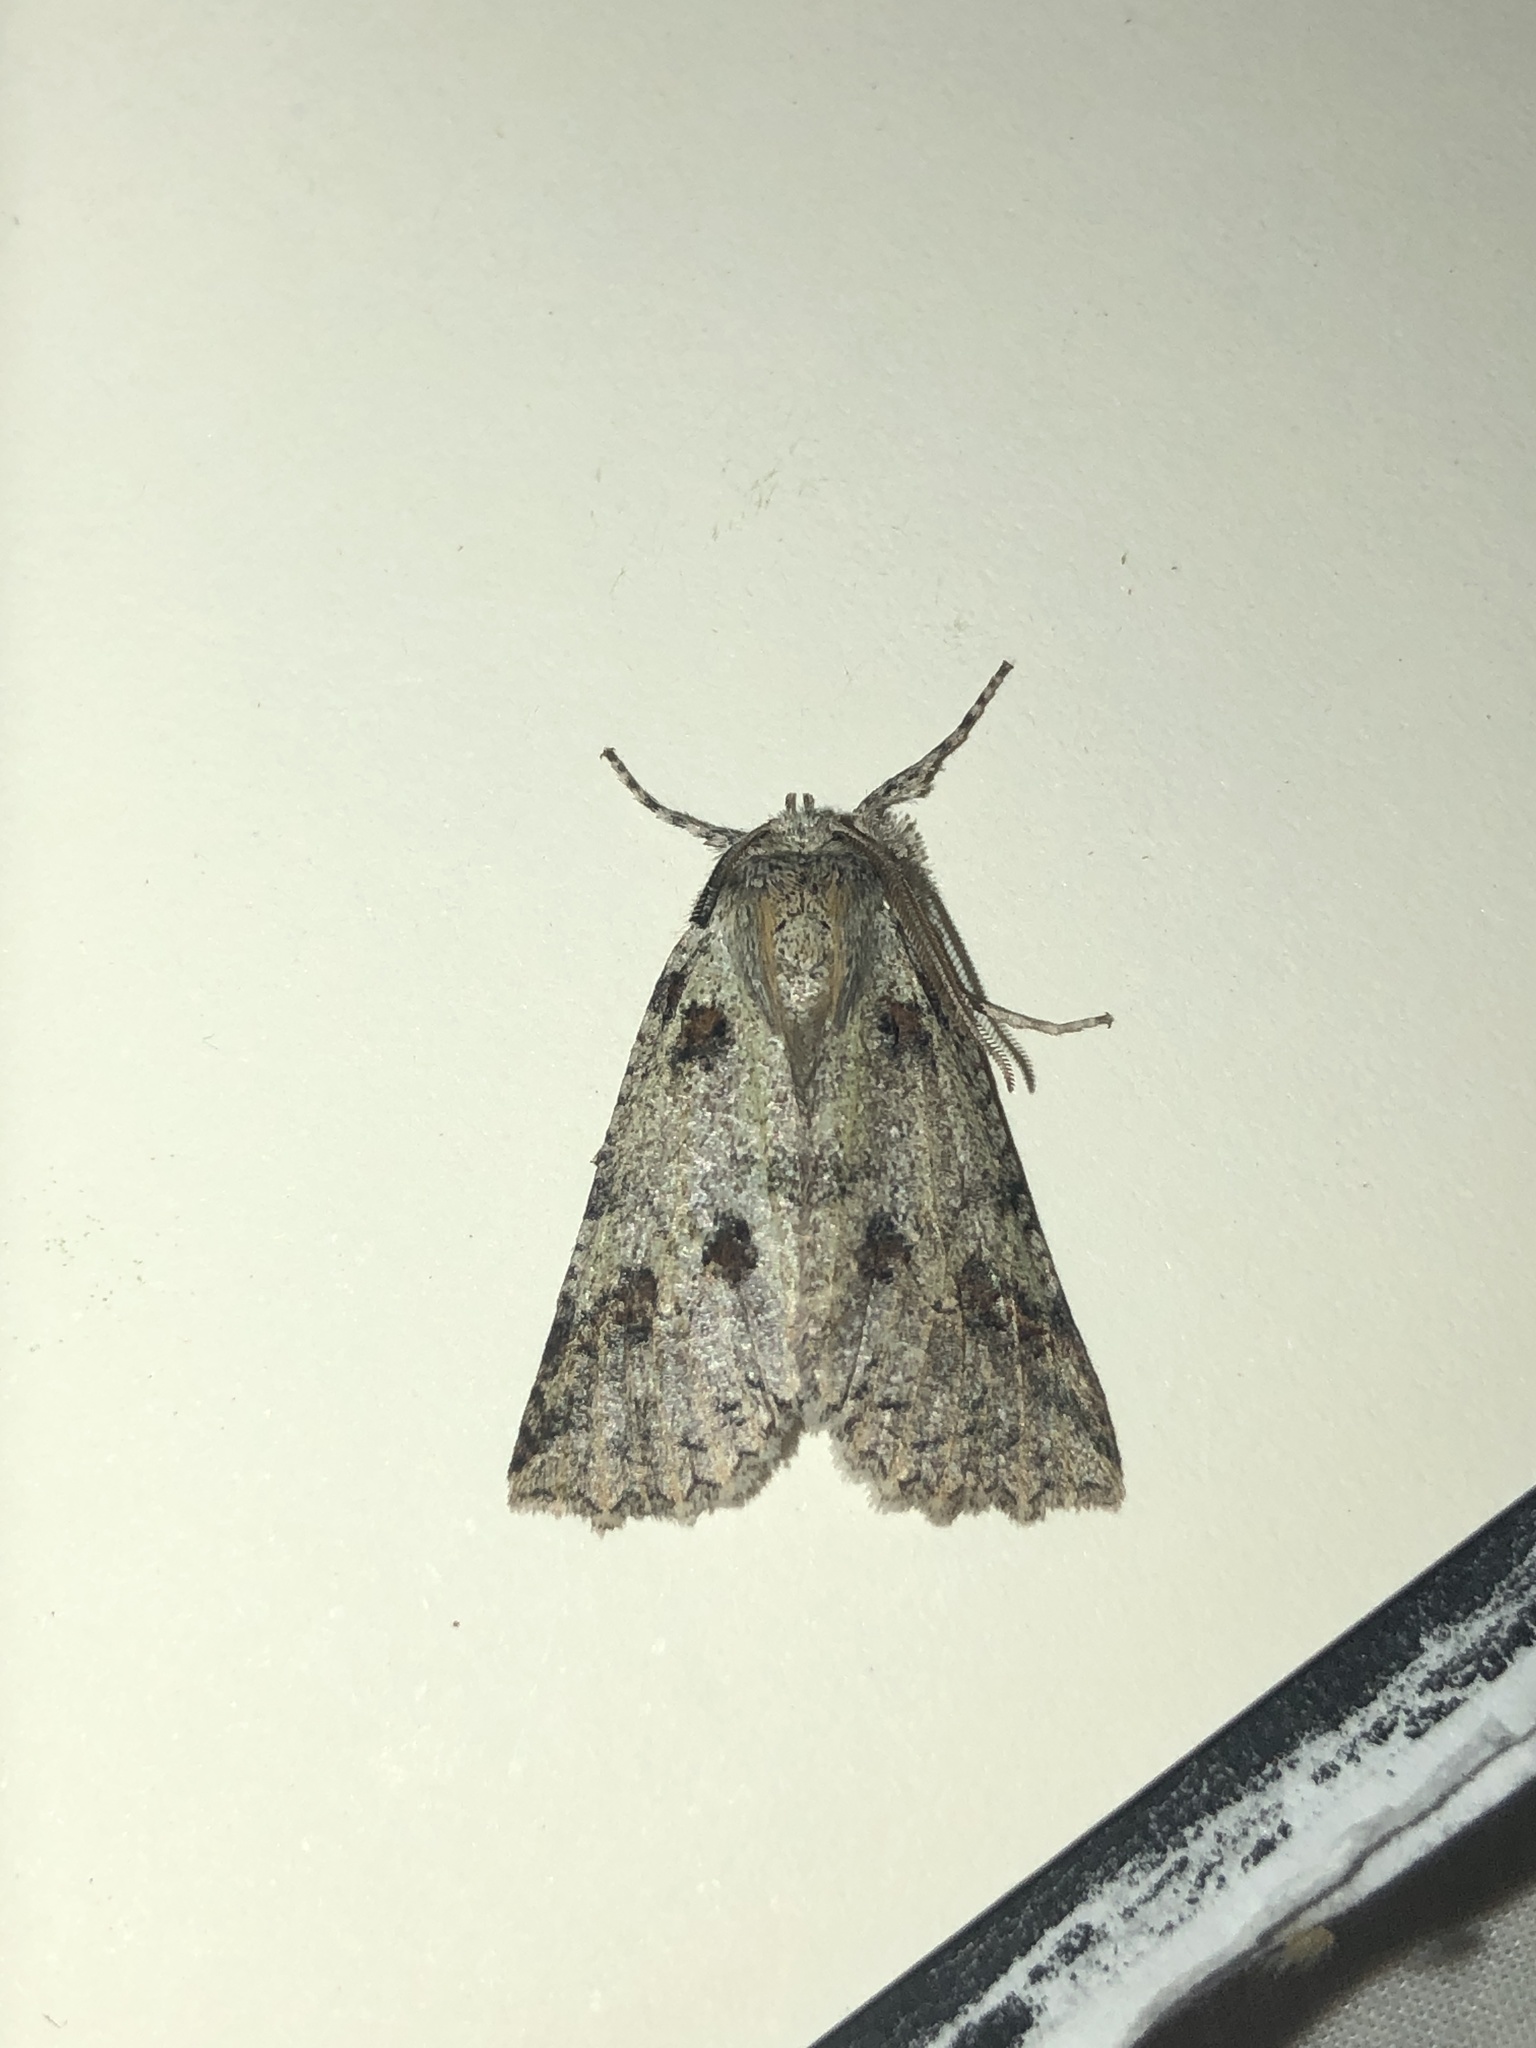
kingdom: Animalia
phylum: Arthropoda
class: Insecta
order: Lepidoptera
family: Geometridae
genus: Declana
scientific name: Declana leptomera
